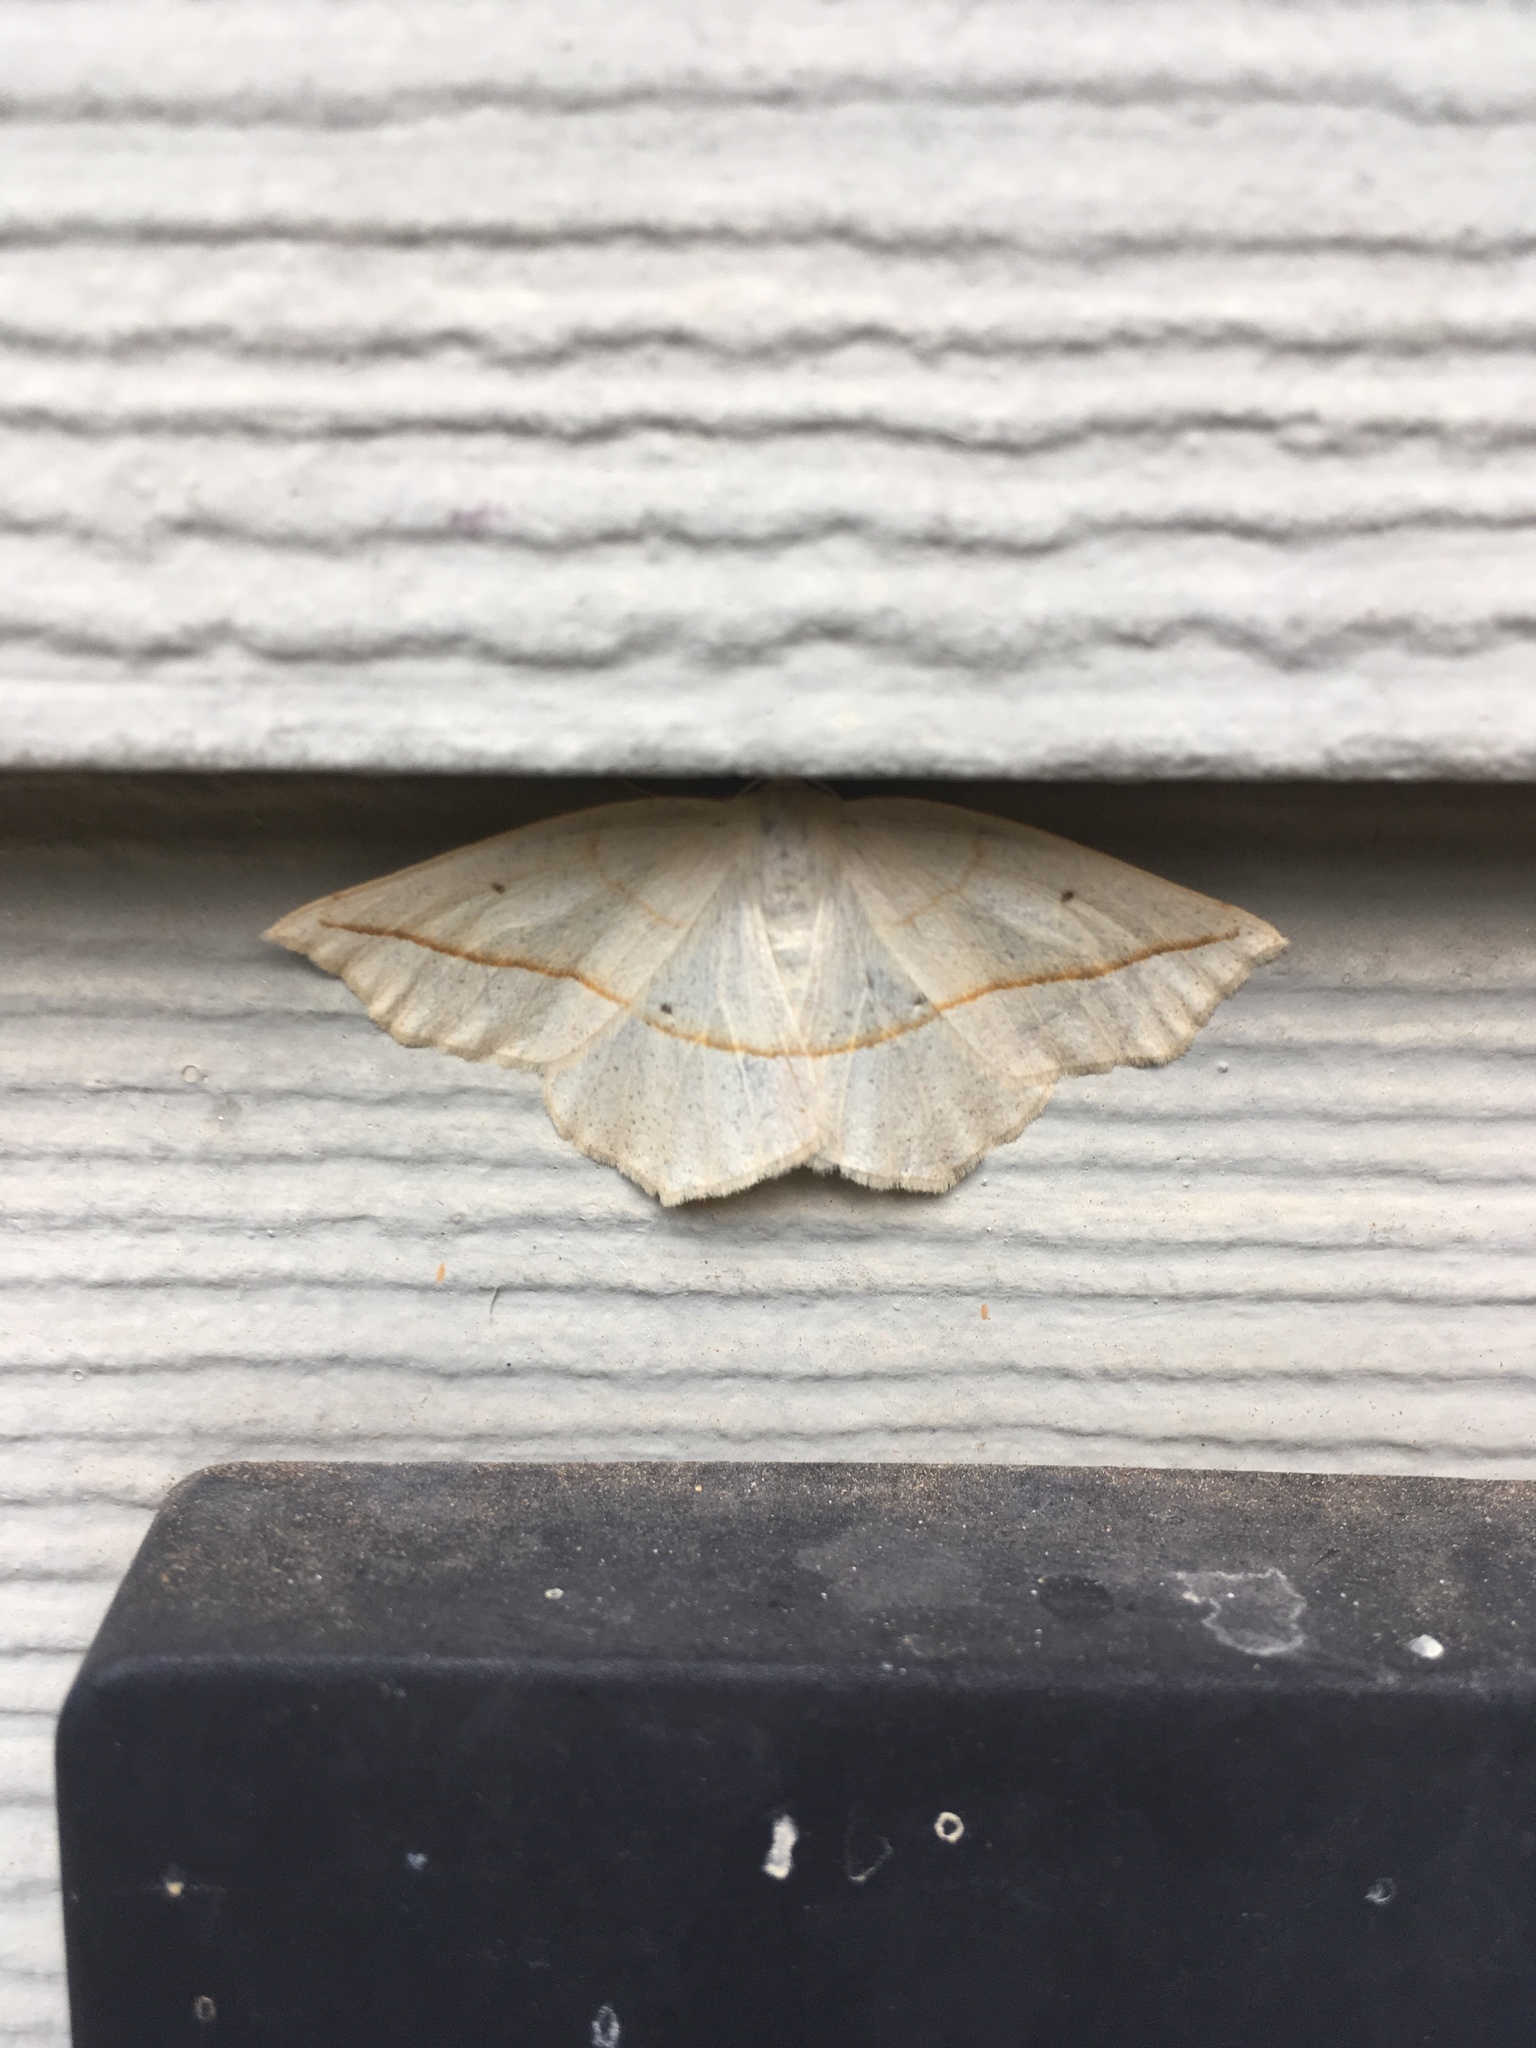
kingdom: Animalia
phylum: Arthropoda
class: Insecta
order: Lepidoptera
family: Geometridae
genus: Eusarca
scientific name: Eusarca confusaria
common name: Confused eusarca
